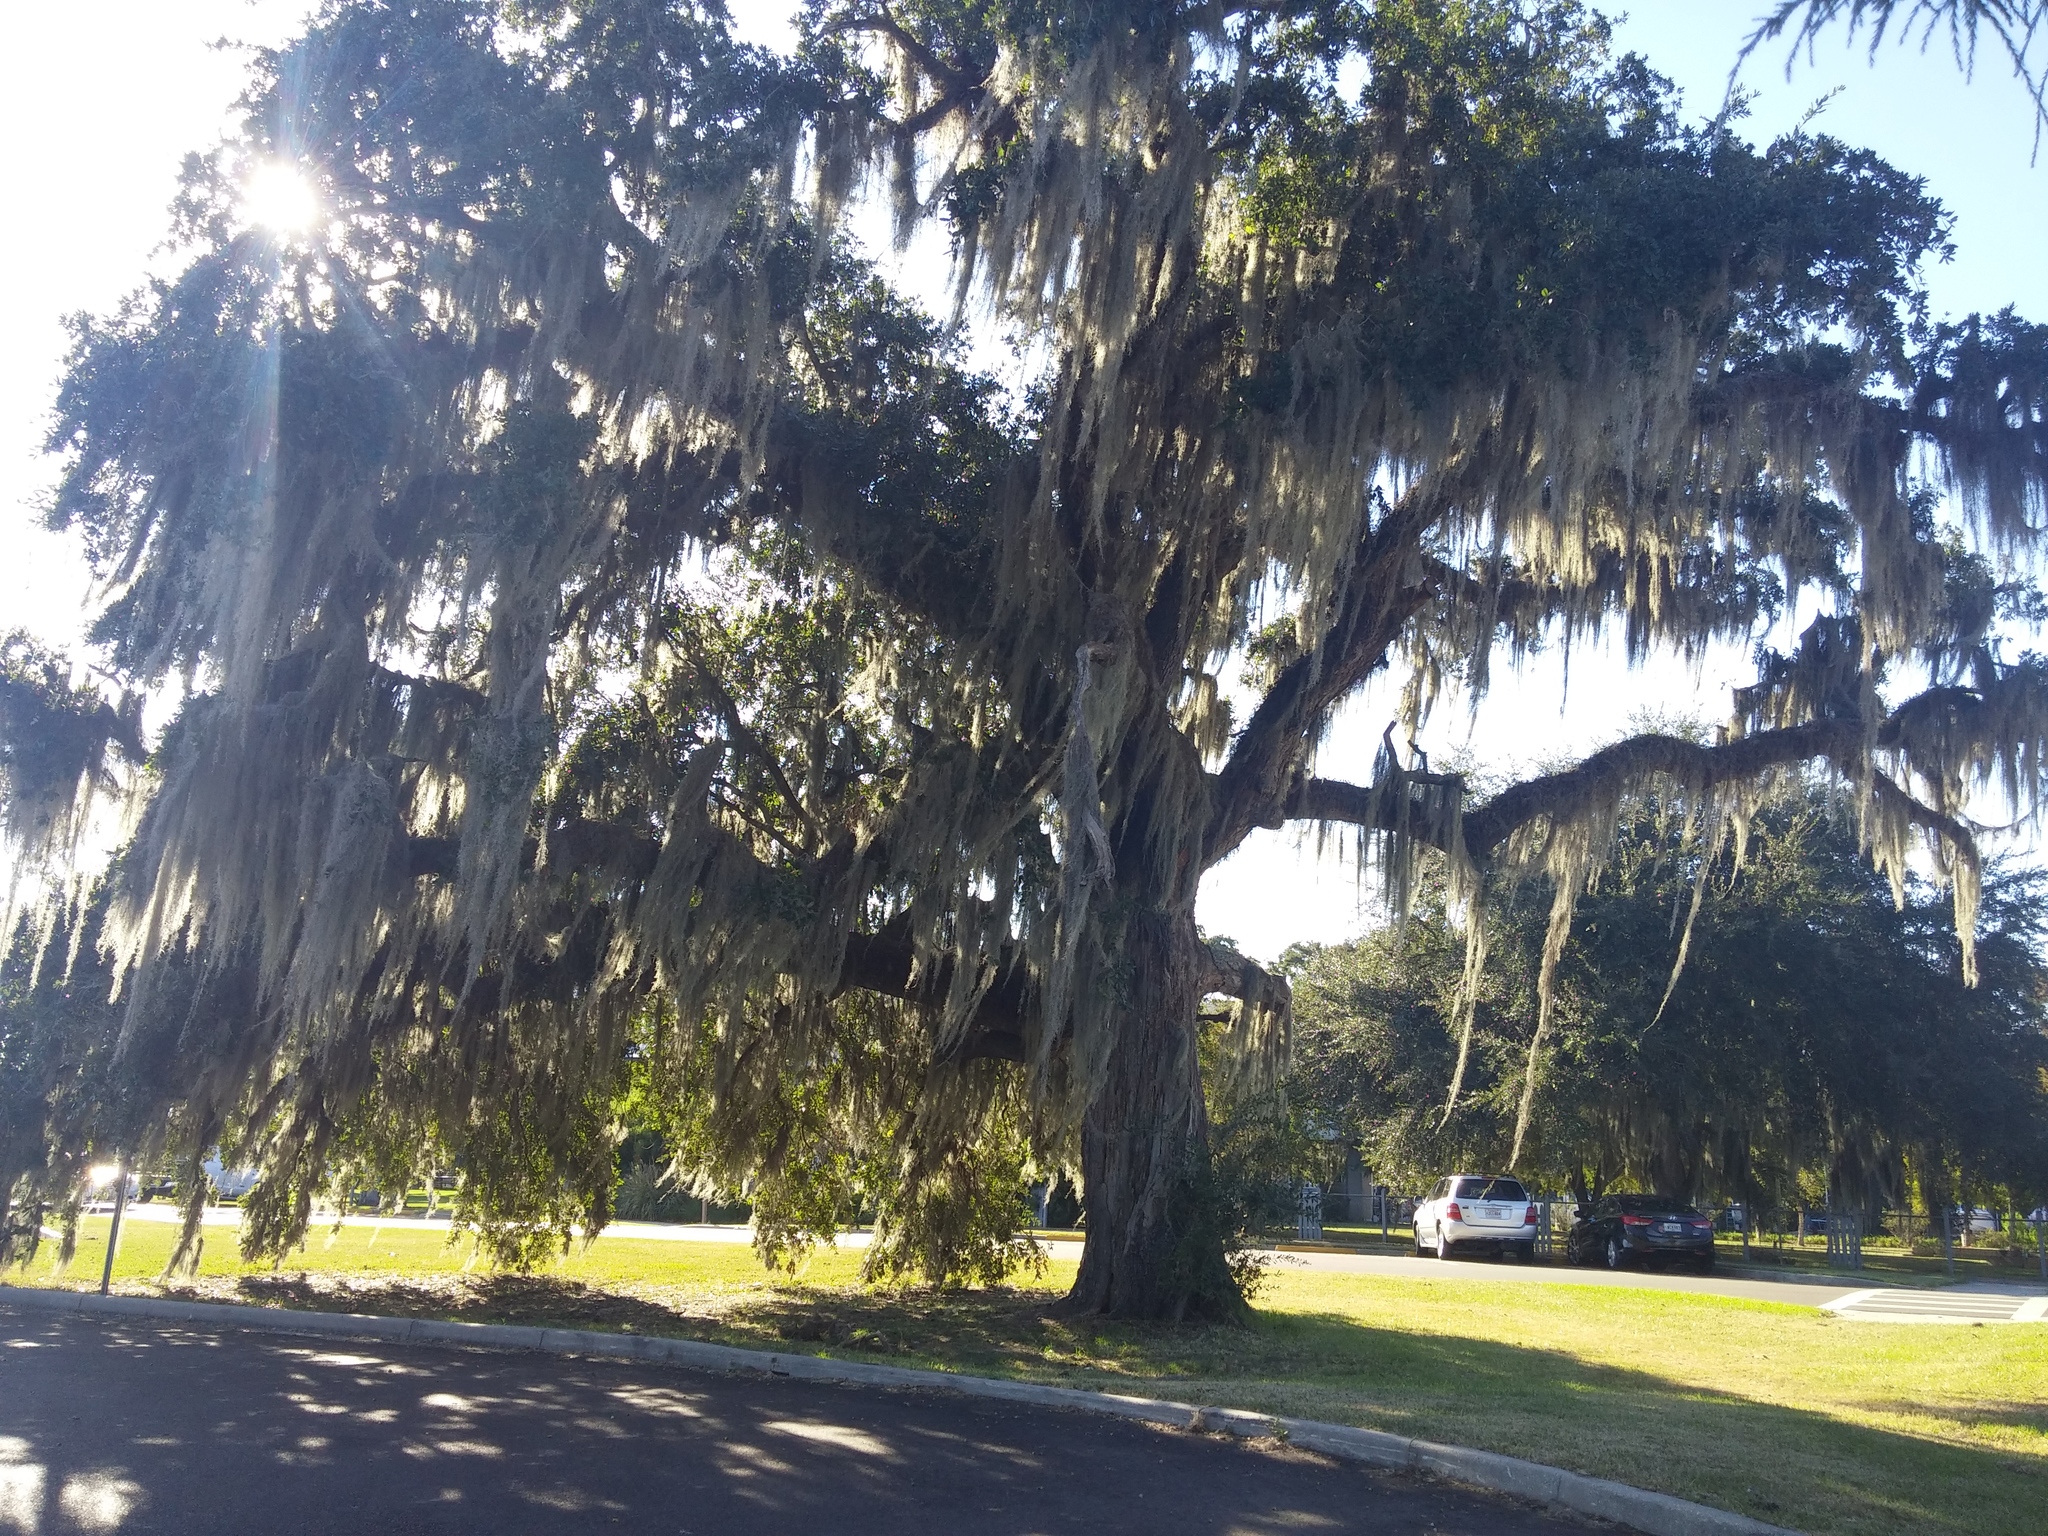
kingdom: Plantae
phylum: Tracheophyta
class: Magnoliopsida
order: Fagales
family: Fagaceae
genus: Quercus
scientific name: Quercus virginiana
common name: Southern live oak
